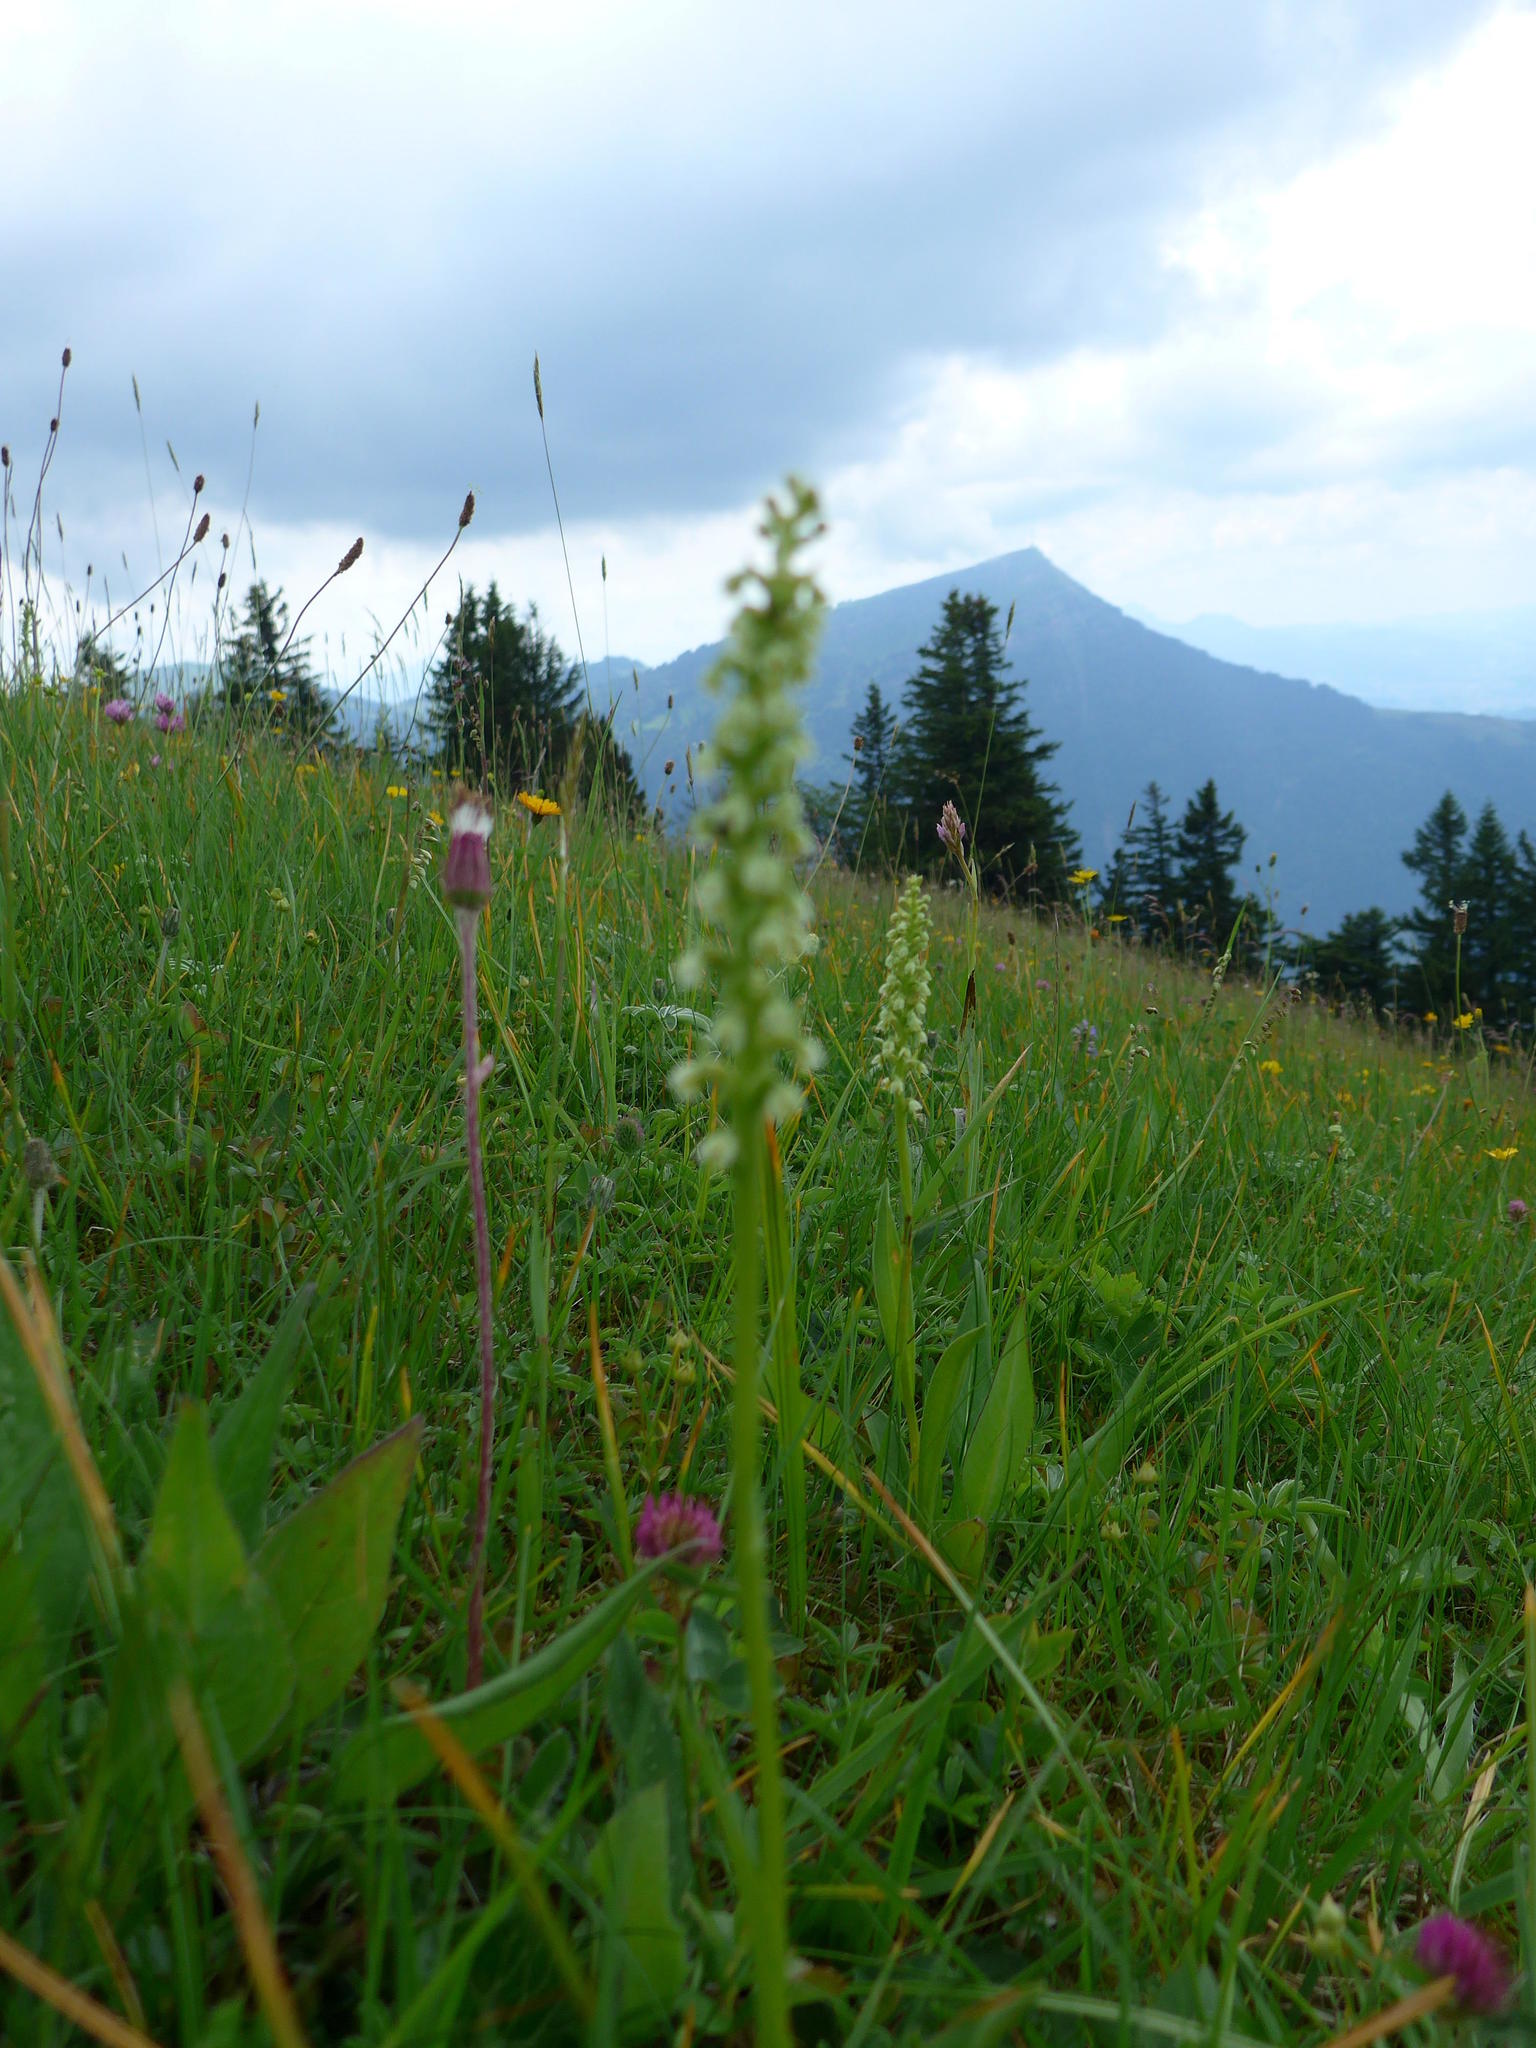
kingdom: Plantae
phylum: Tracheophyta
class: Liliopsida
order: Asparagales
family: Orchidaceae
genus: Pseudorchis
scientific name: Pseudorchis albida
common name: Small-white orchid
